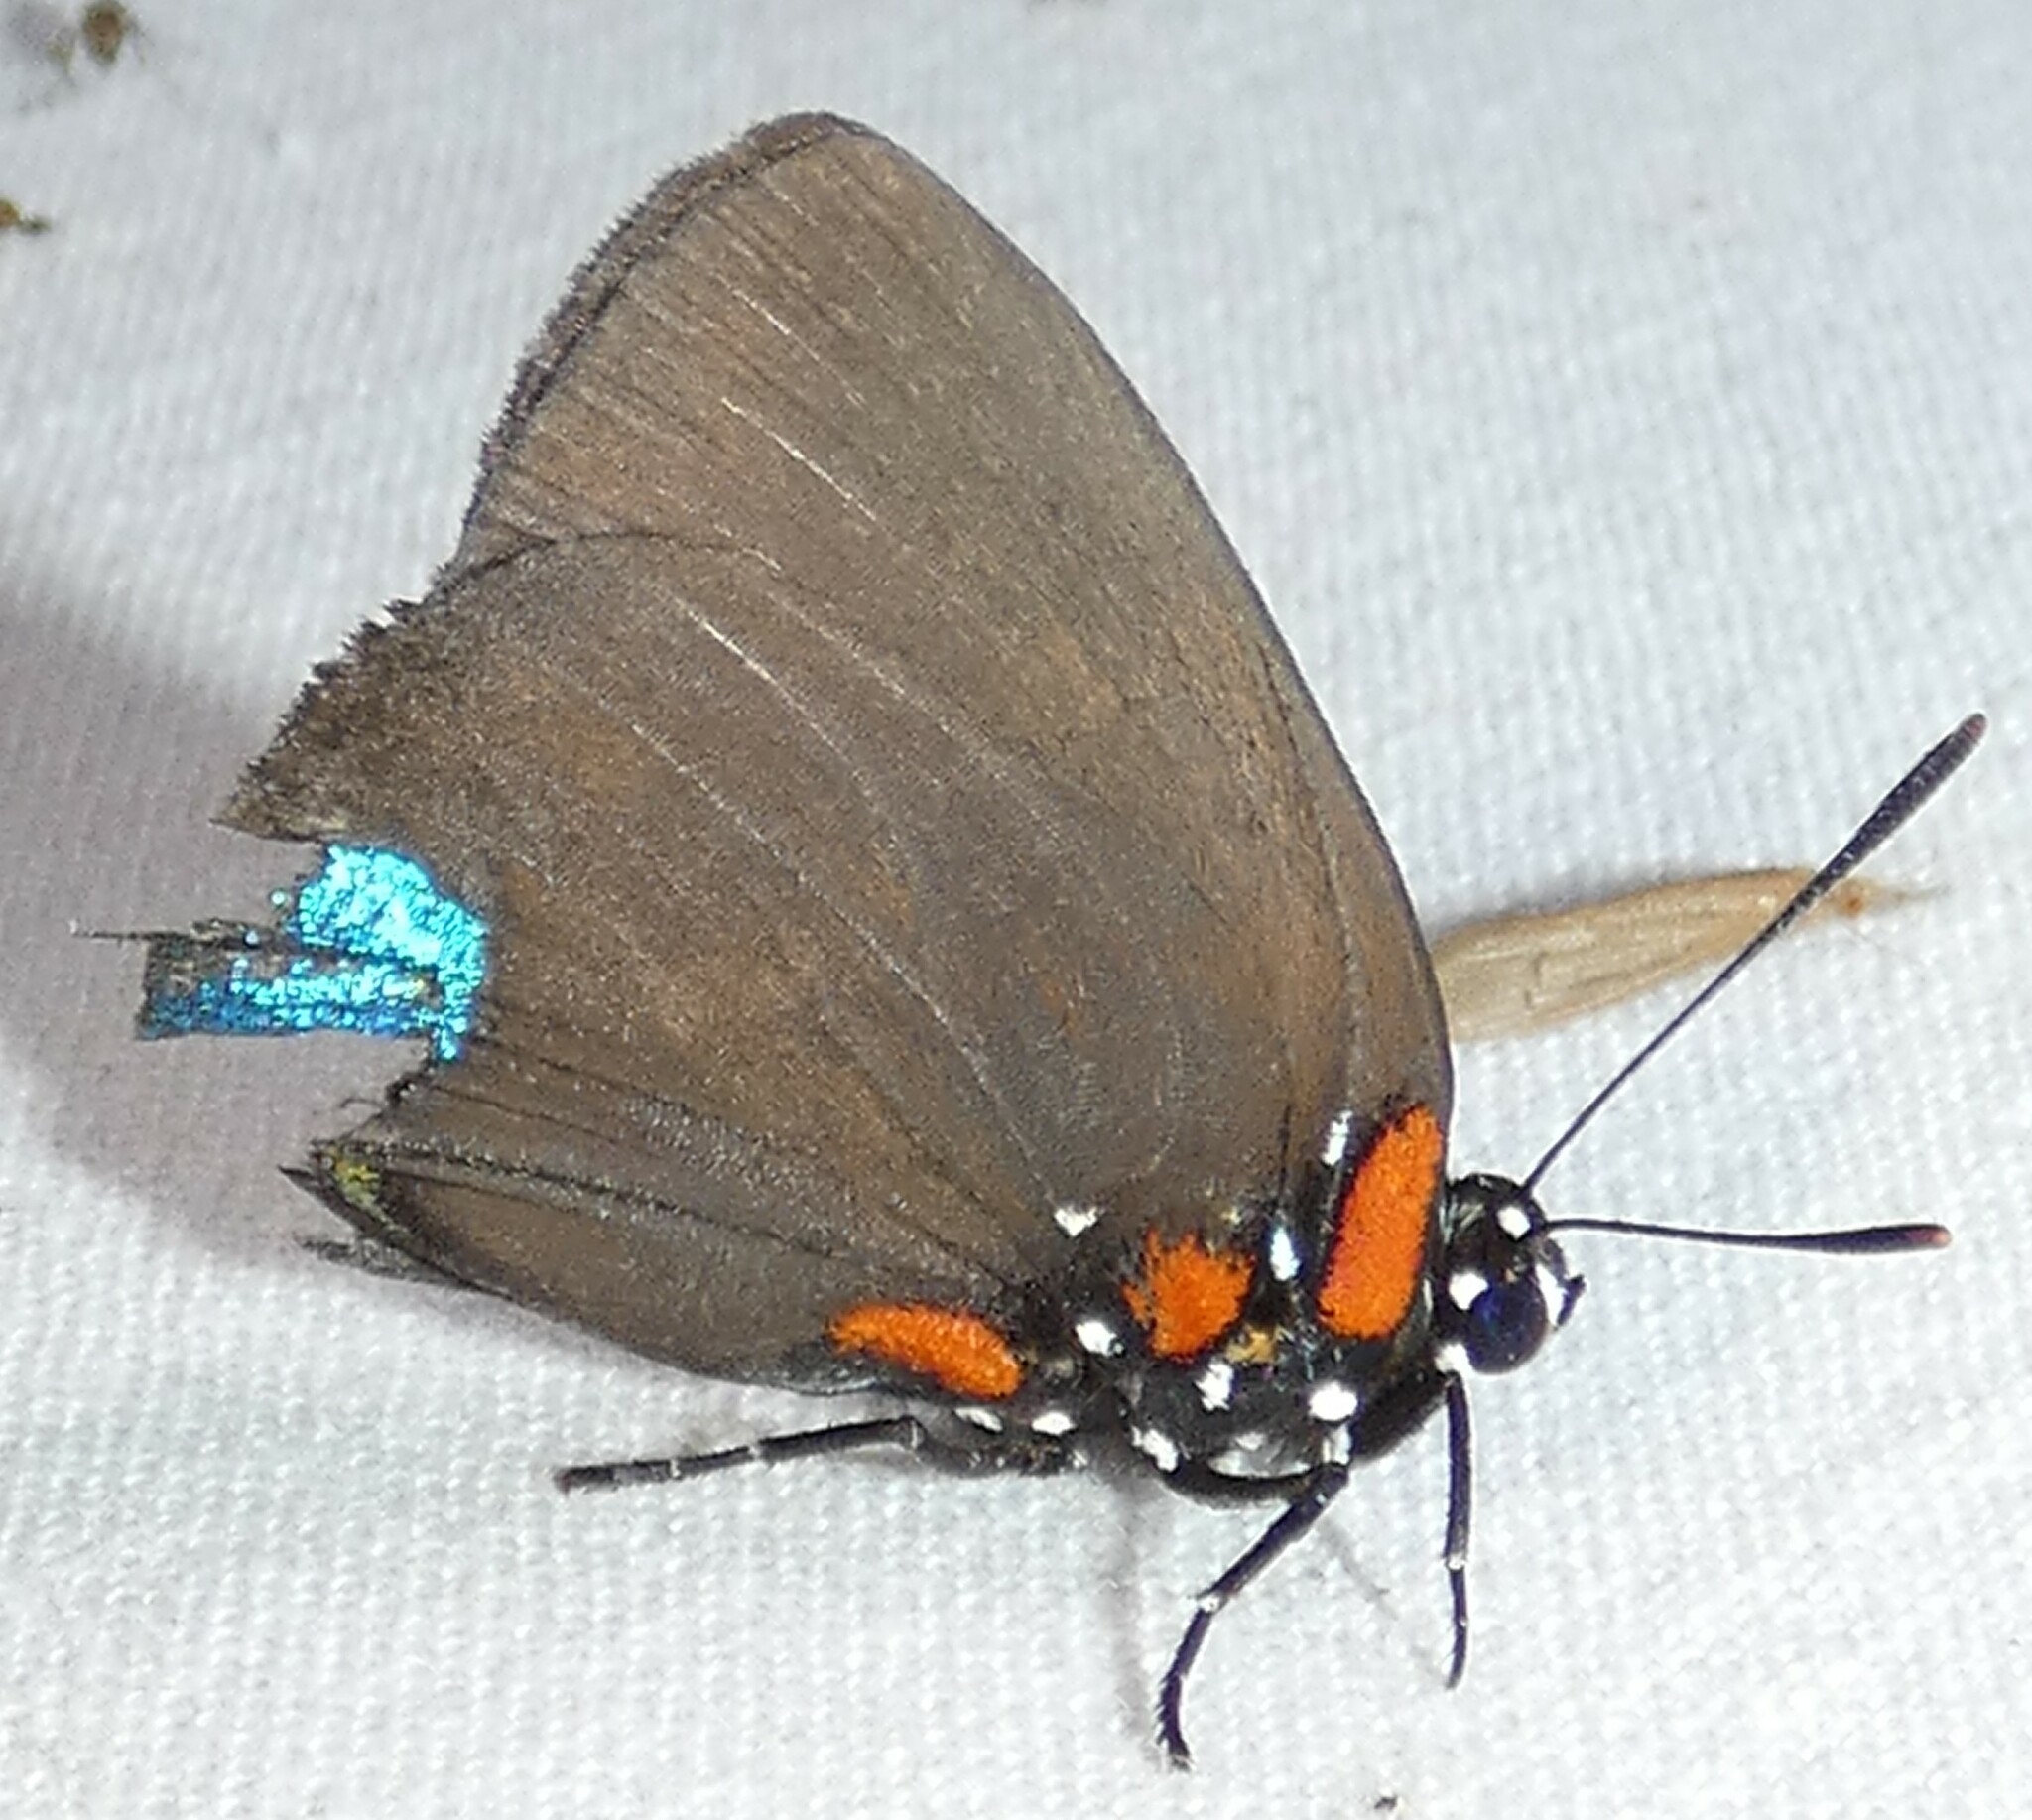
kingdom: Animalia
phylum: Arthropoda
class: Insecta
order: Lepidoptera
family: Lycaenidae
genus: Atlides
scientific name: Atlides halesus
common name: Great purple hairstreak
